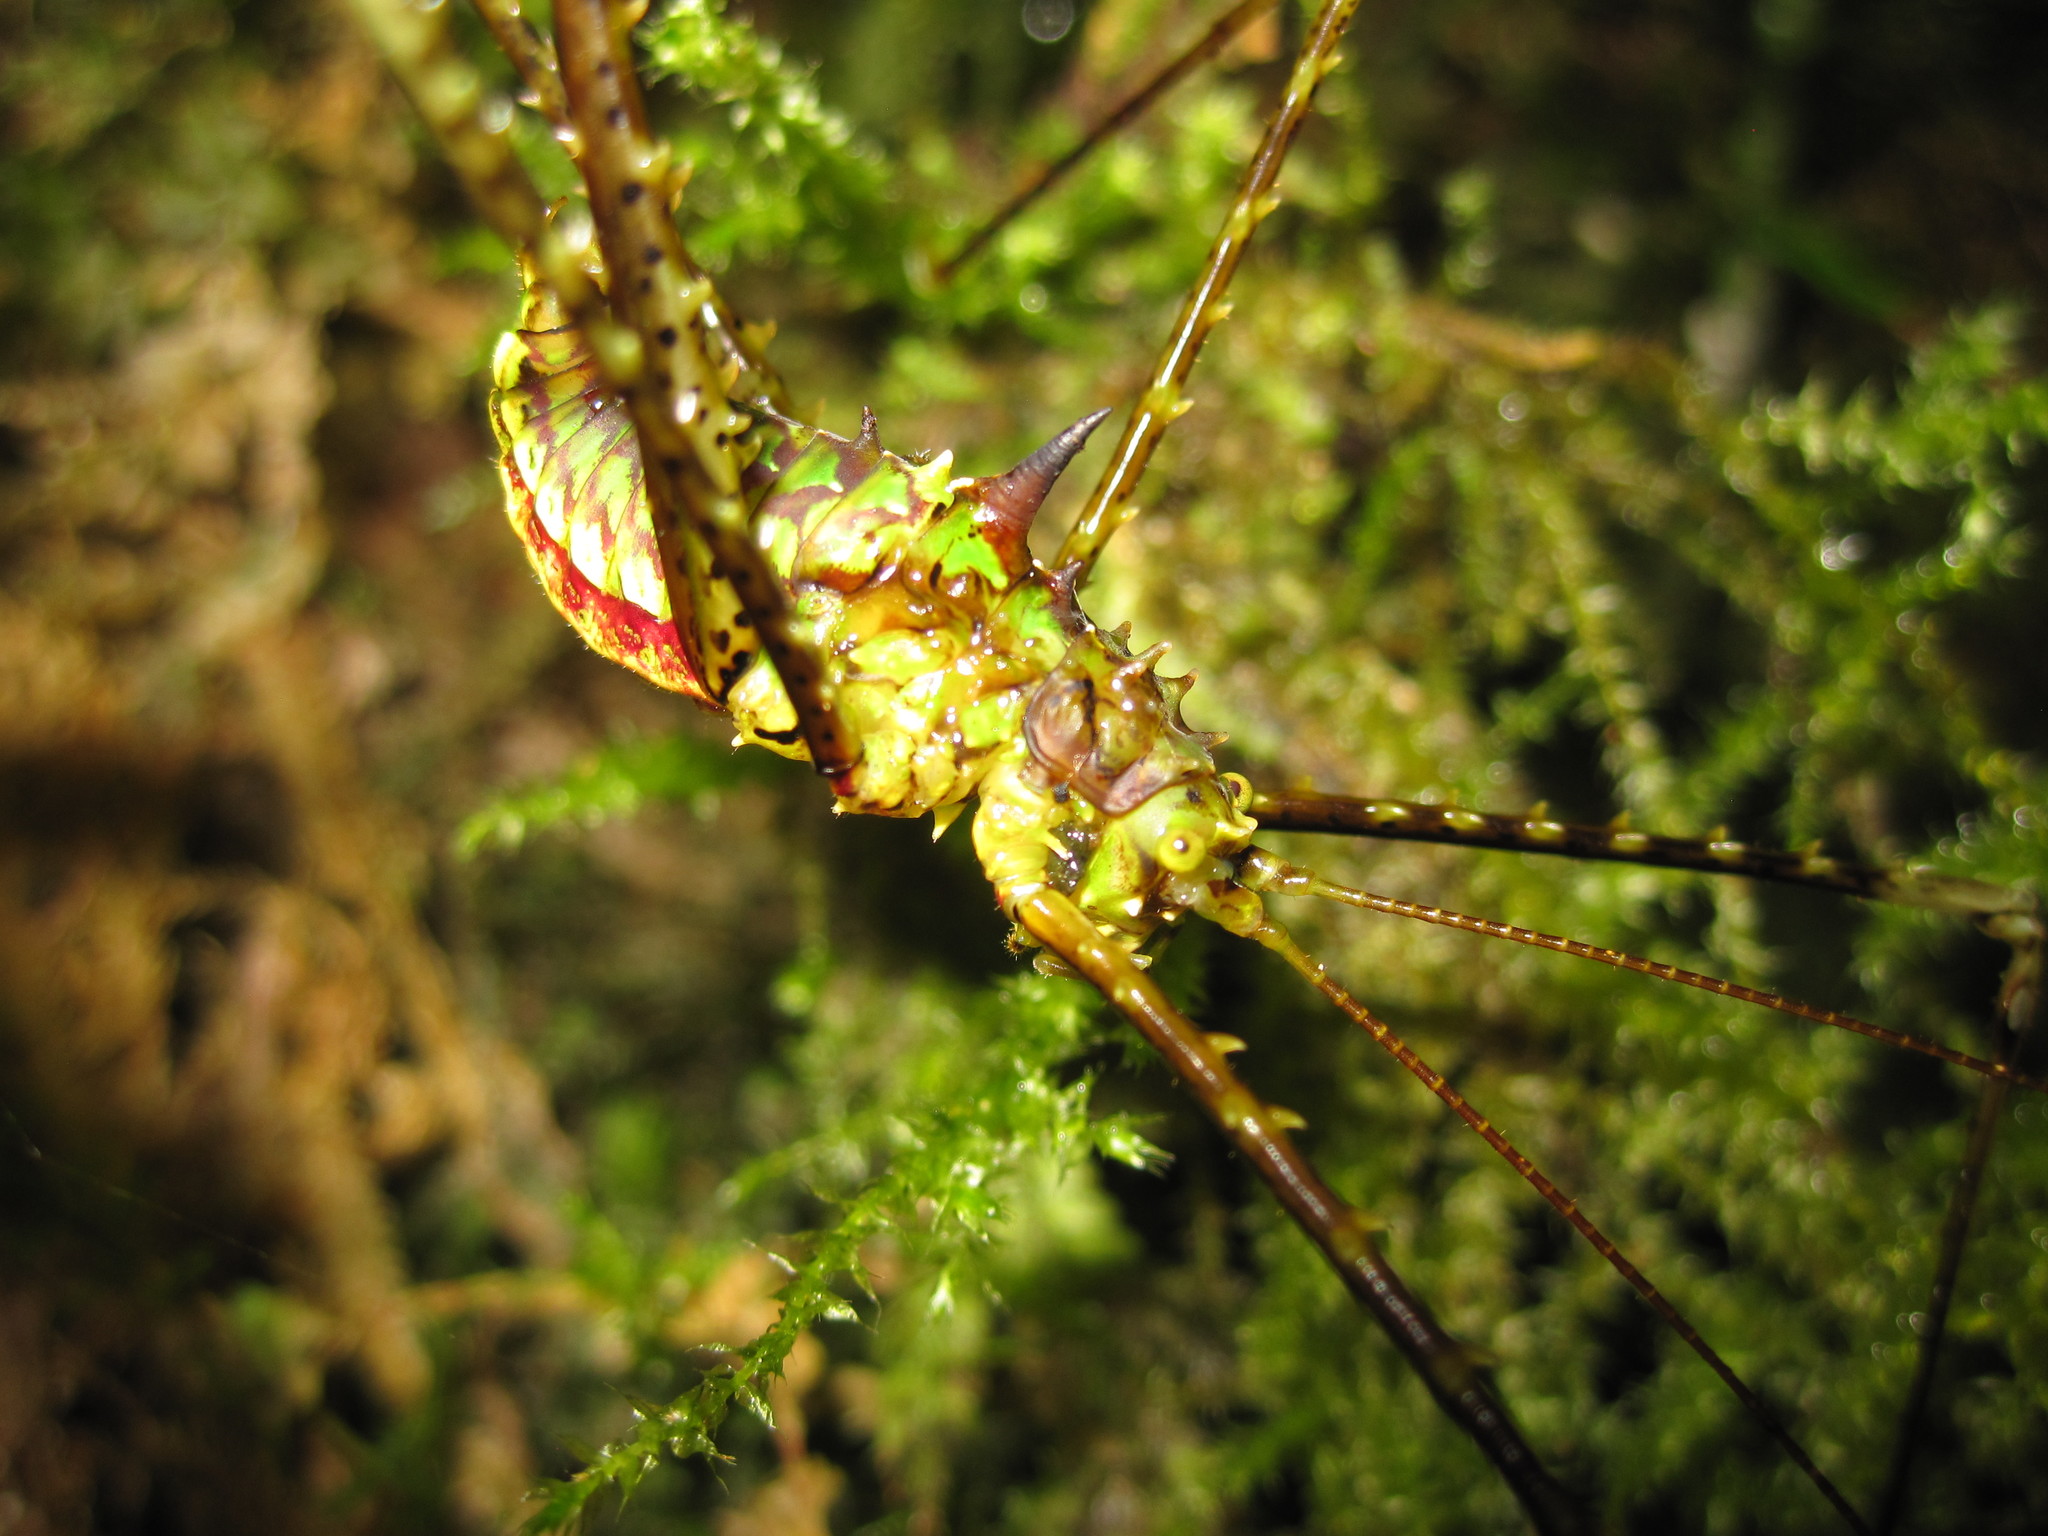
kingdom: Animalia
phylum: Arthropoda
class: Insecta
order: Orthoptera
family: Tettigoniidae
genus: Tabaria
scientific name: Tabaria opilioides
